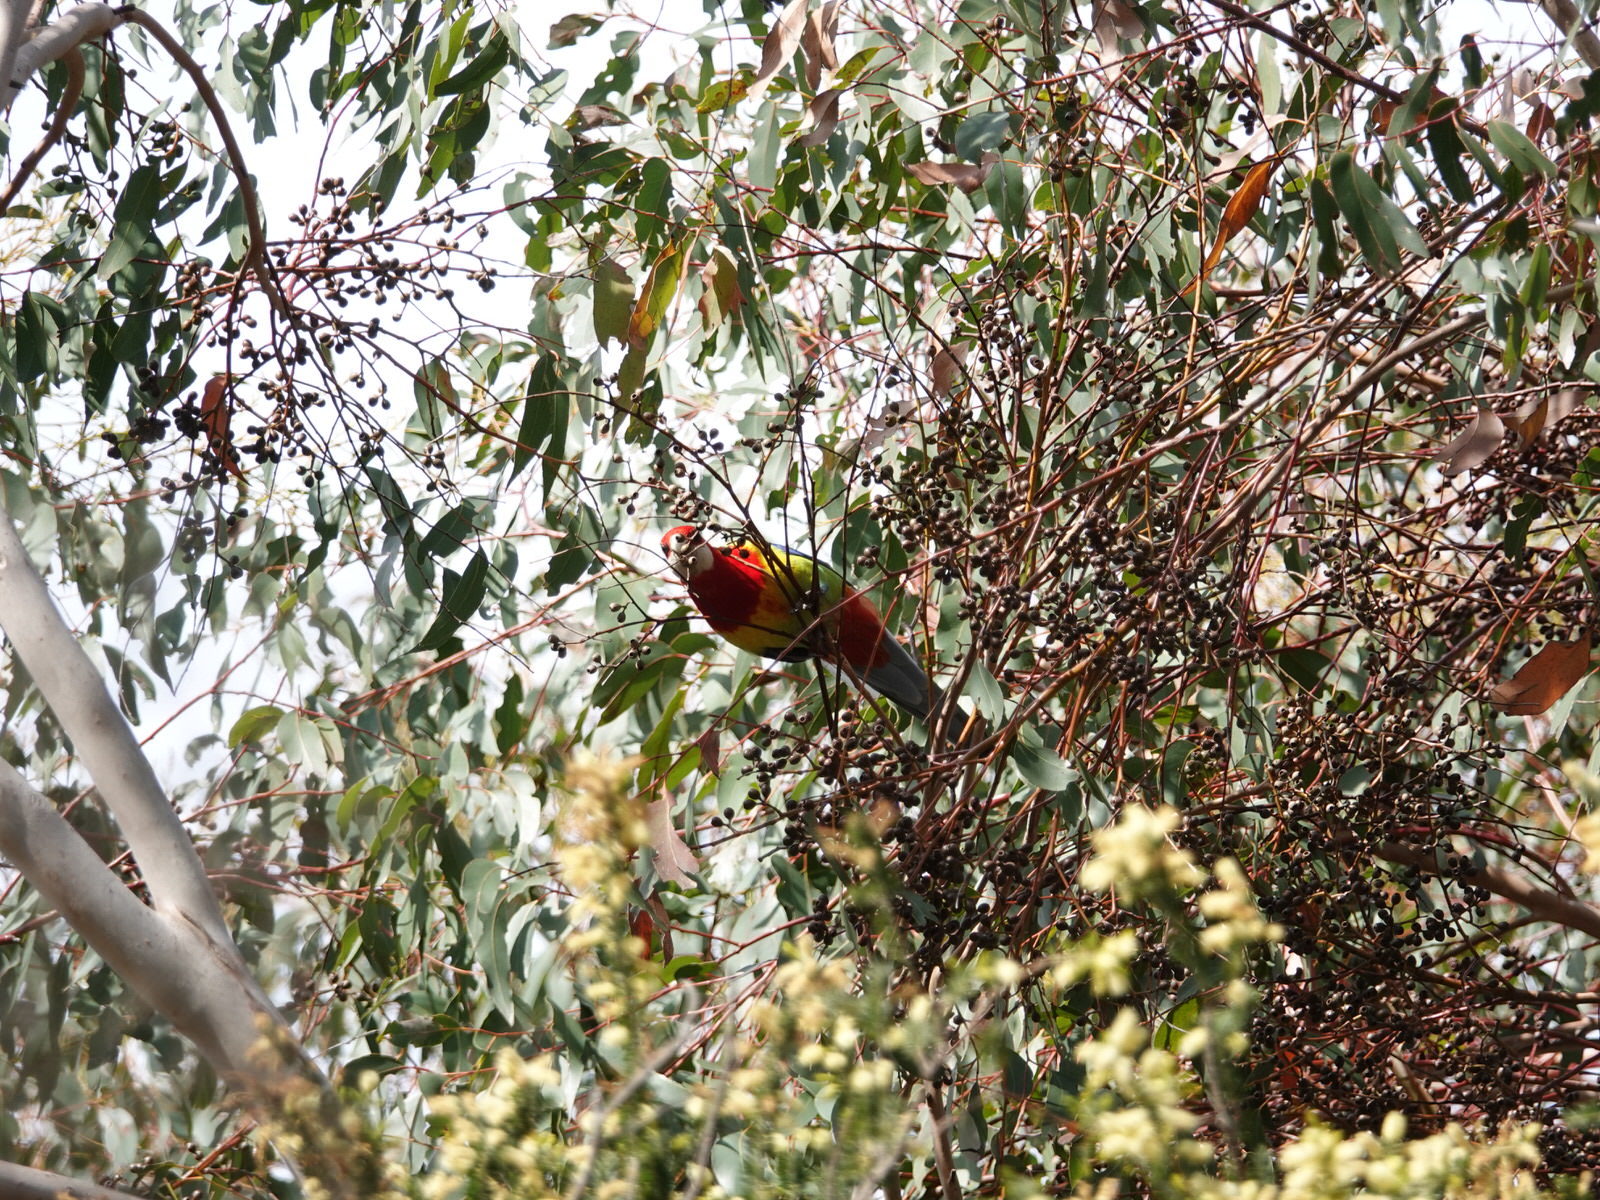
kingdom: Animalia
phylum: Chordata
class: Aves
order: Psittaciformes
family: Psittacidae
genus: Platycercus
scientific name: Platycercus eximius
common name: Eastern rosella
